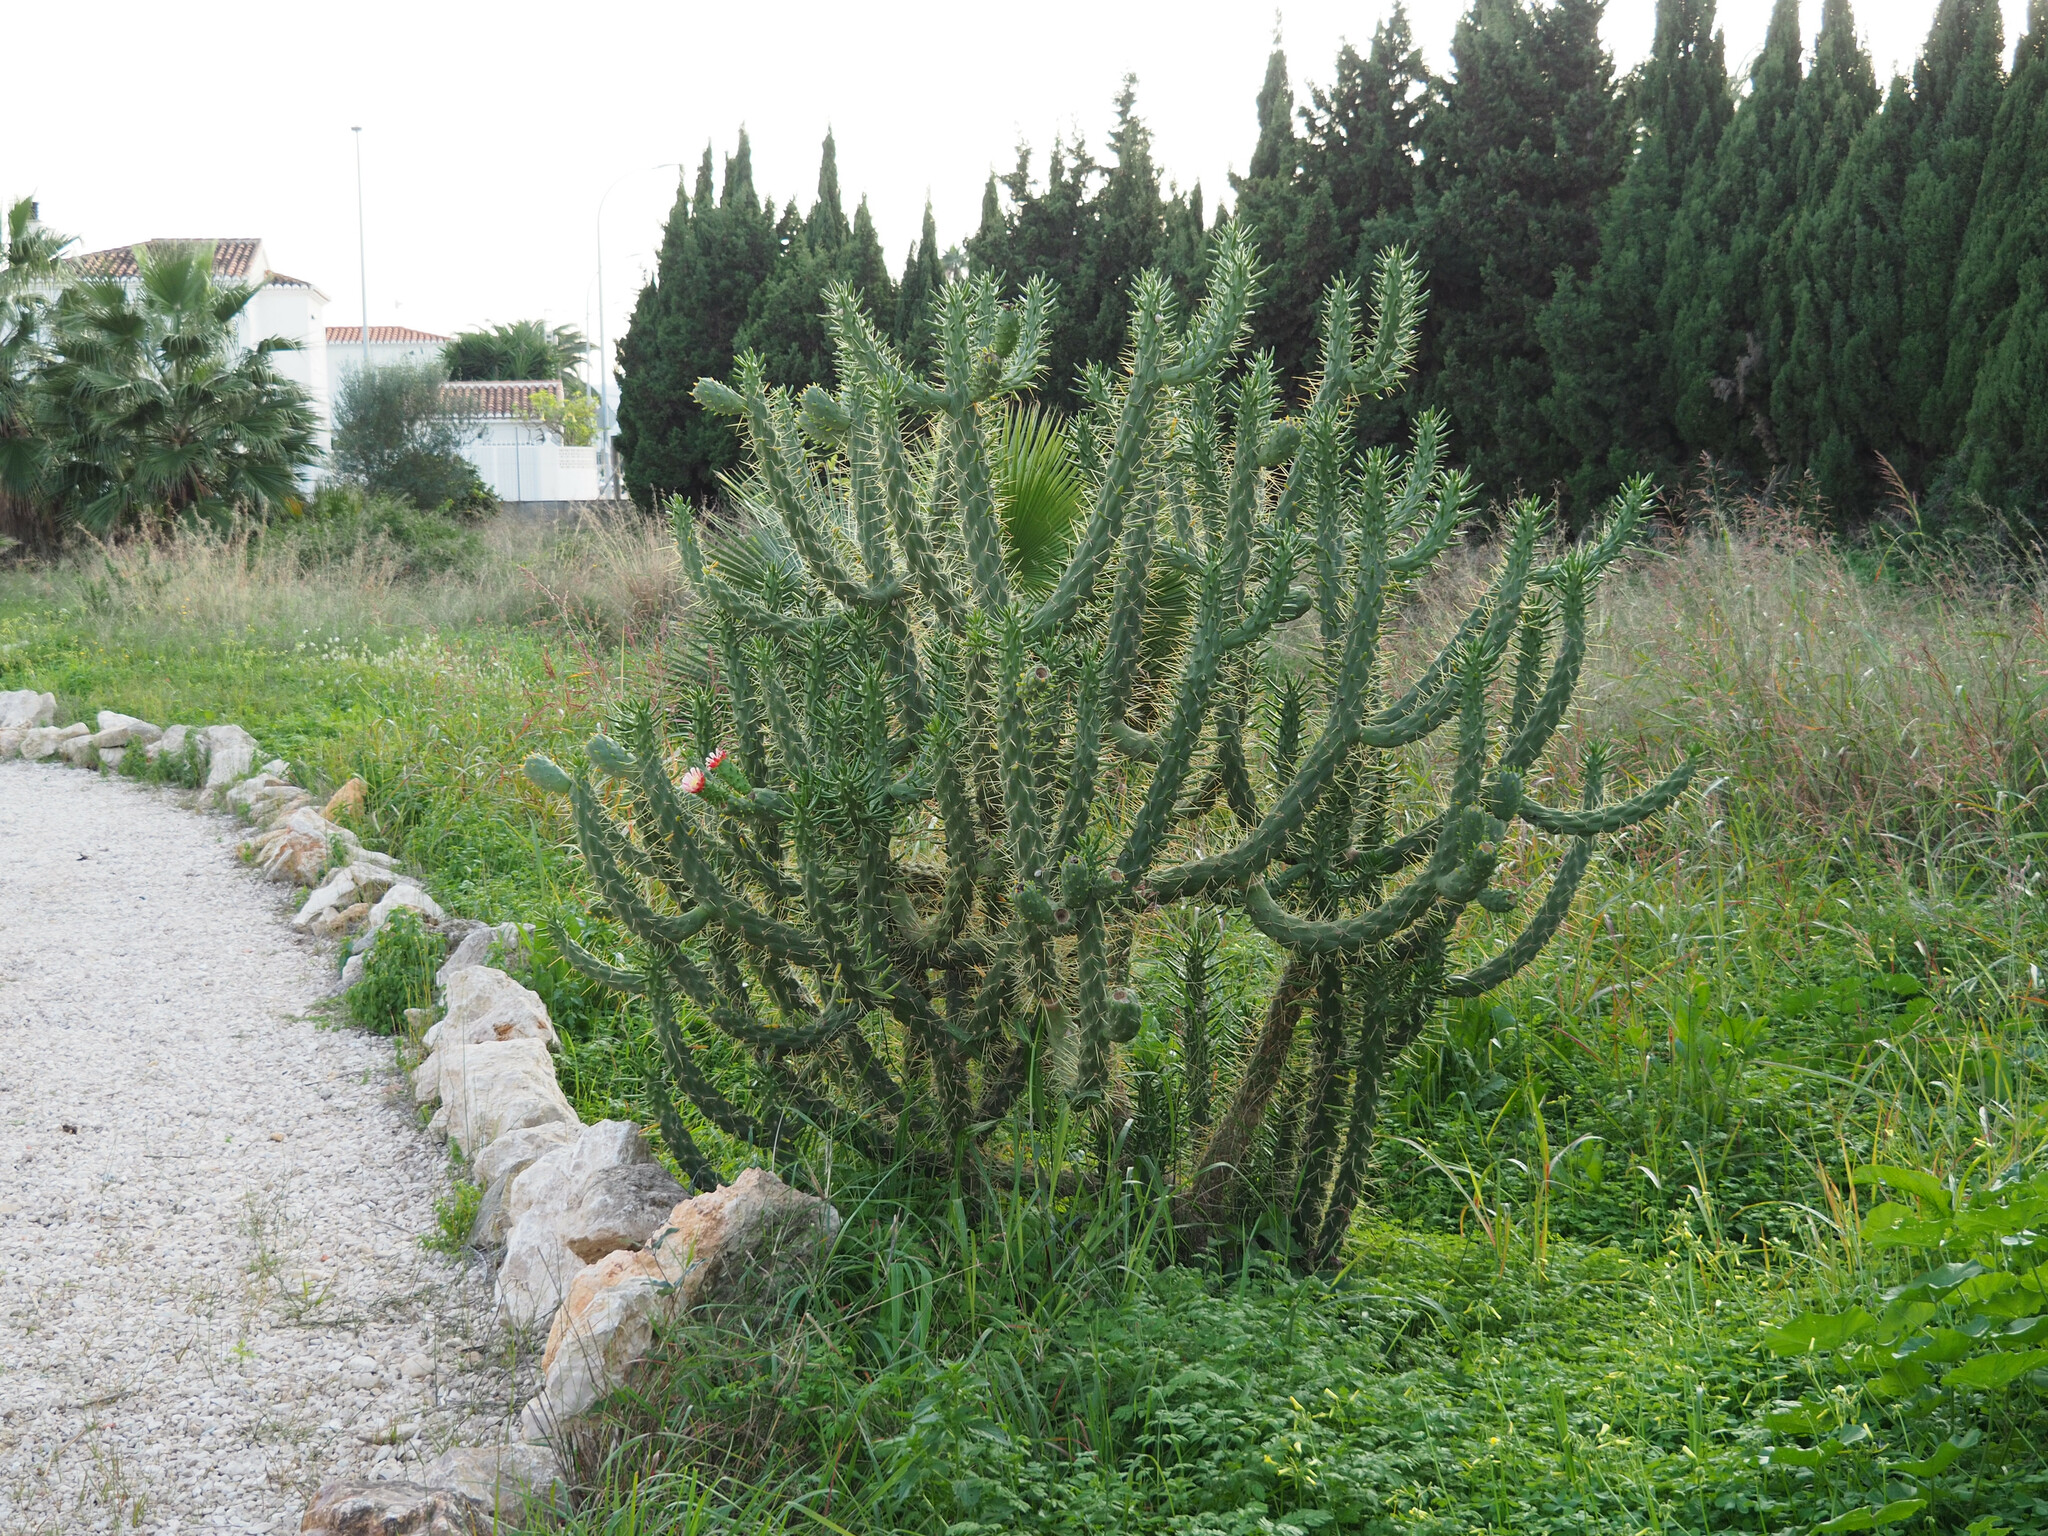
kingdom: Plantae
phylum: Tracheophyta
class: Magnoliopsida
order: Caryophyllales
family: Cactaceae
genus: Austrocylindropuntia
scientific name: Austrocylindropuntia subulata
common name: Eve's needle cactus
